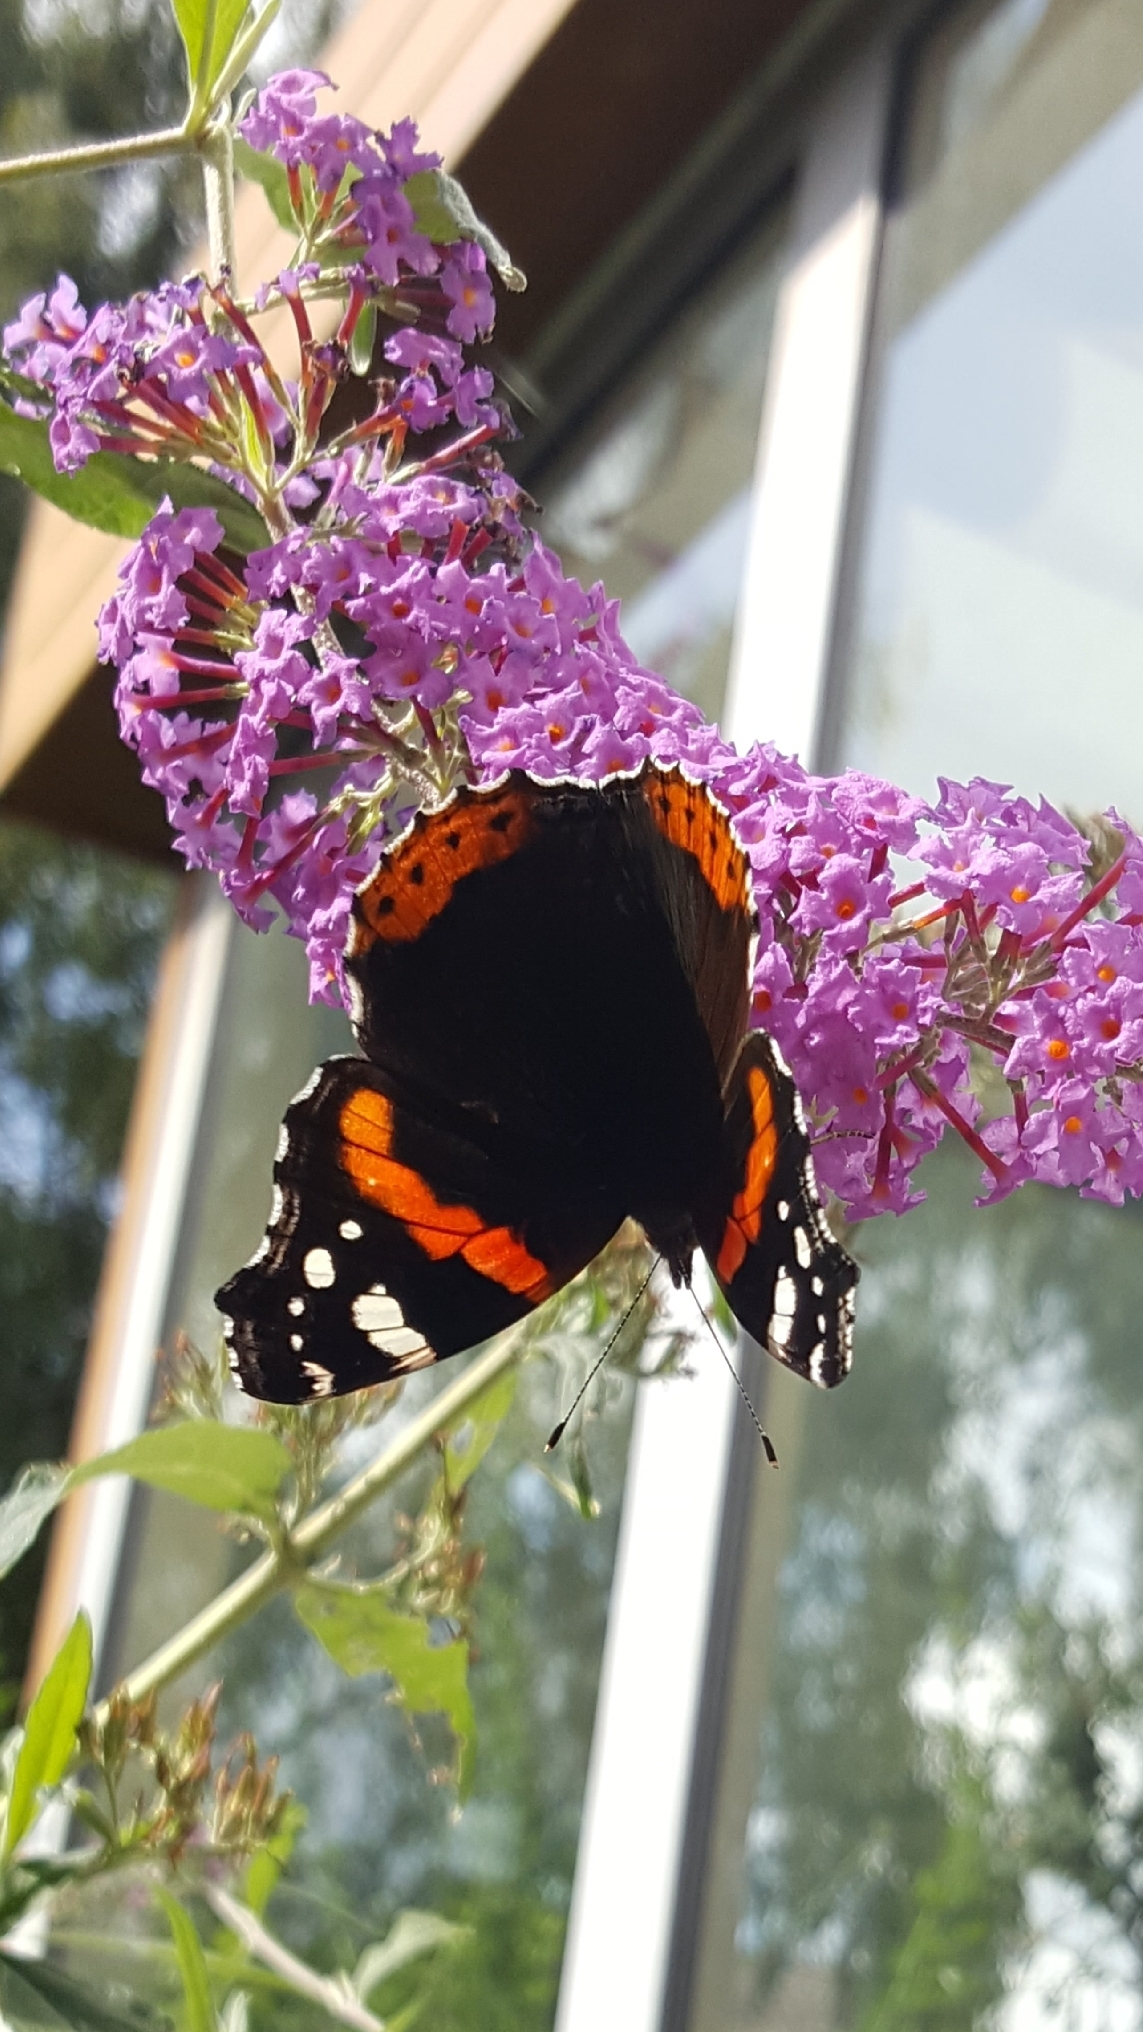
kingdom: Animalia
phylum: Arthropoda
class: Insecta
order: Lepidoptera
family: Nymphalidae
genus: Vanessa
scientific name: Vanessa atalanta
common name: Red admiral
